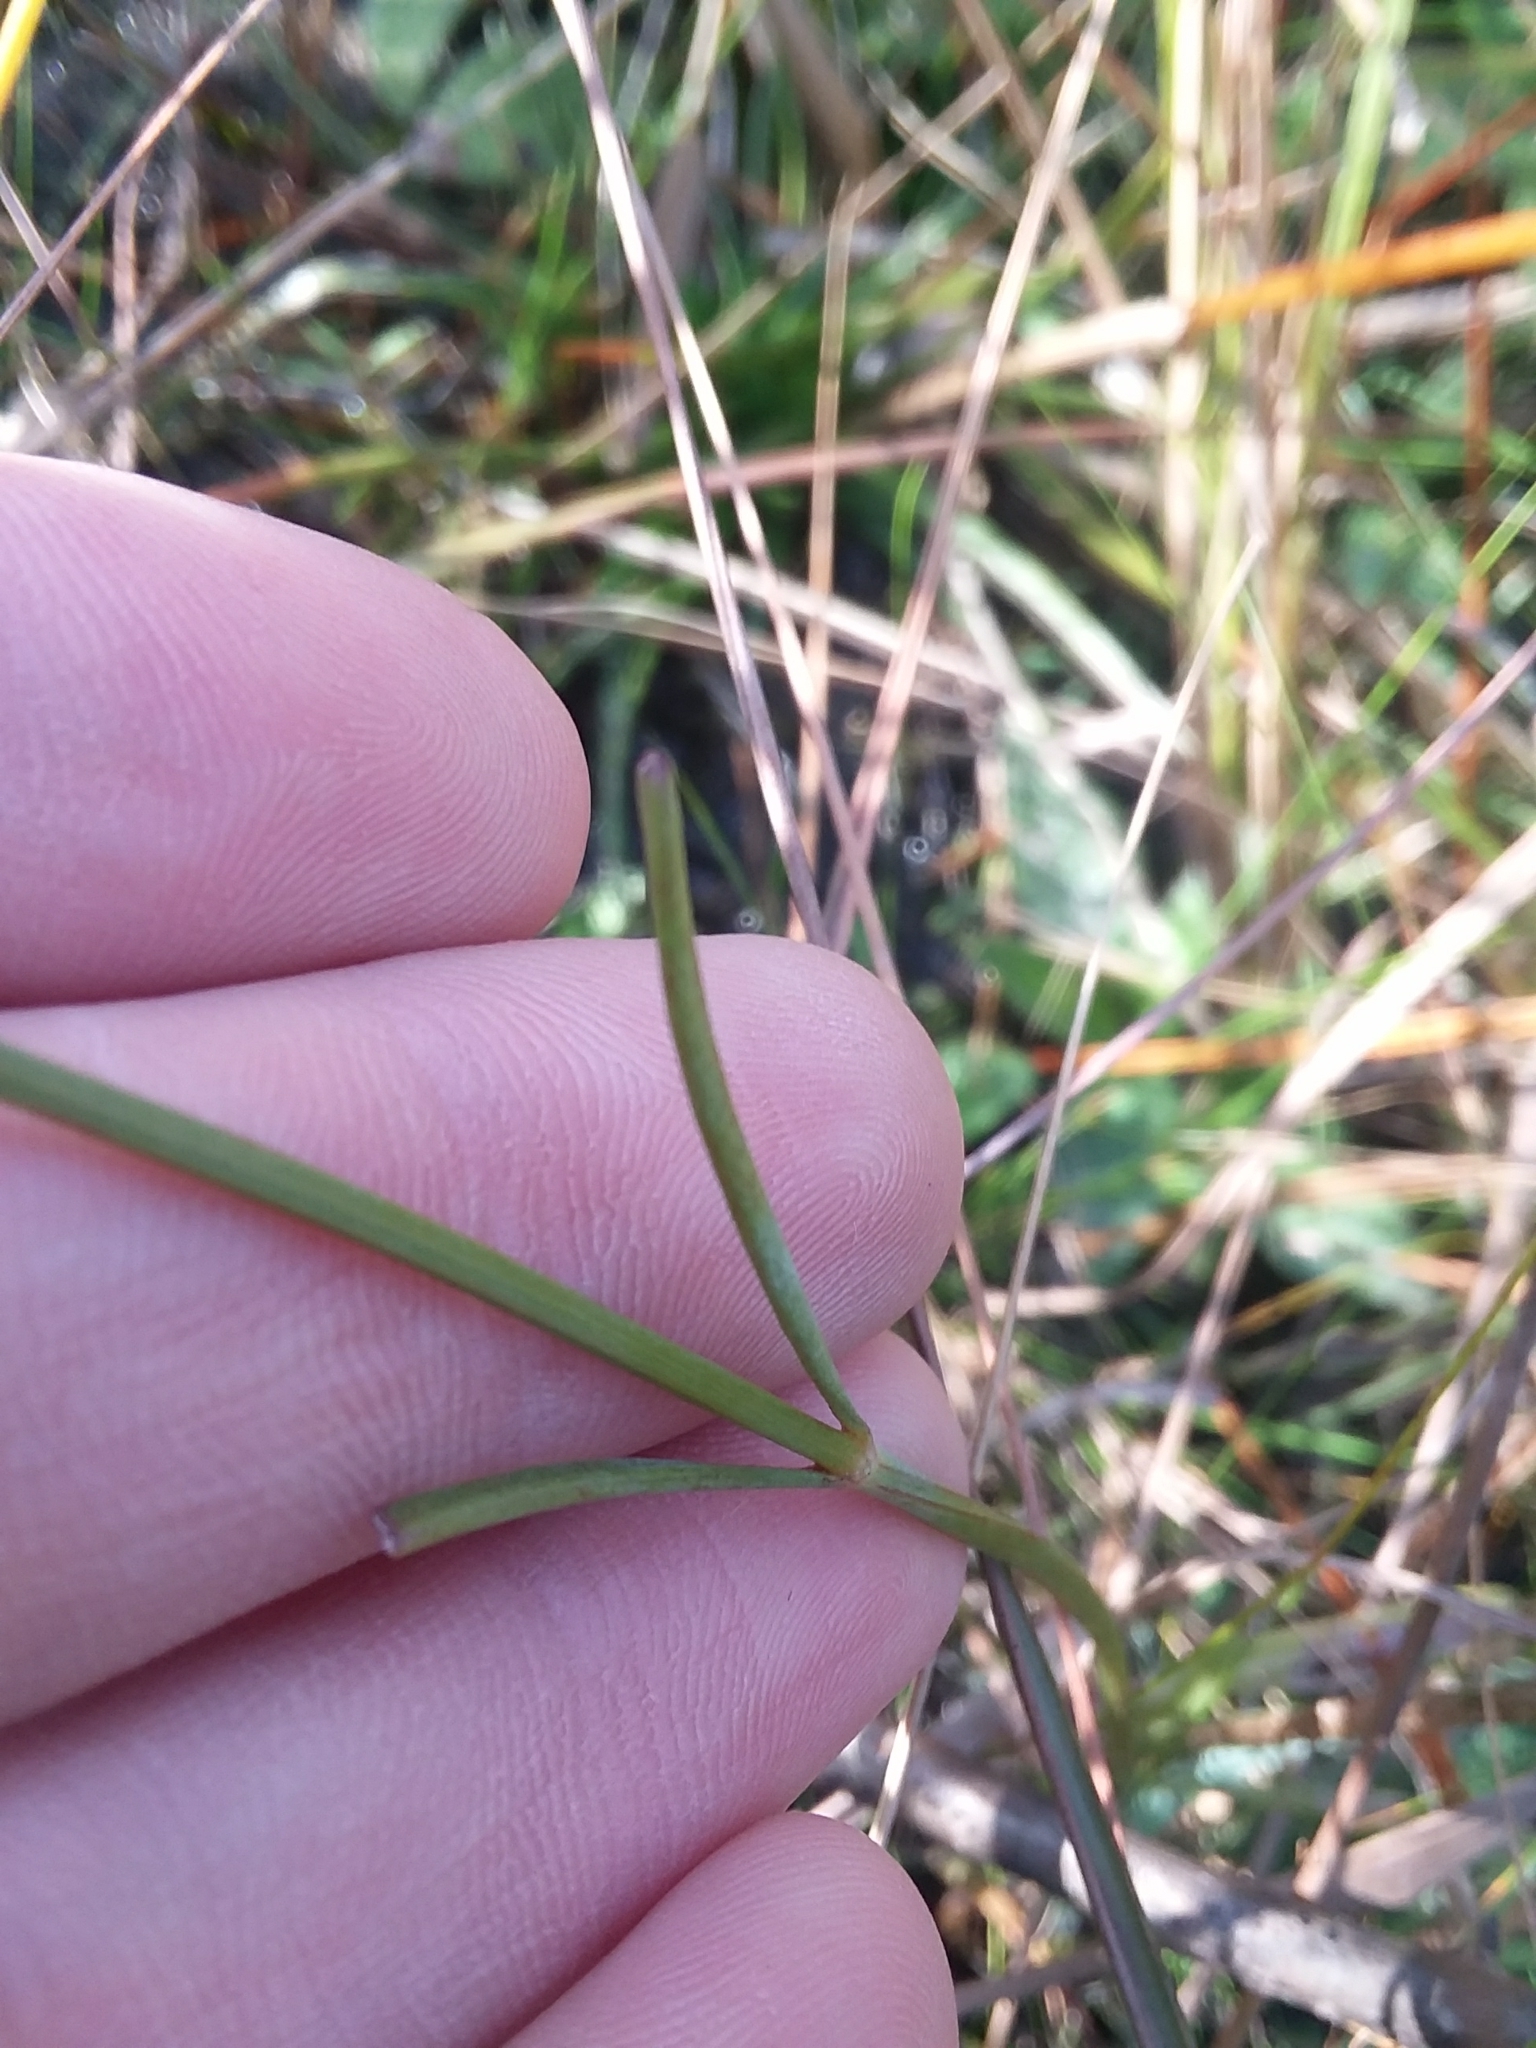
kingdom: Plantae
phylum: Tracheophyta
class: Magnoliopsida
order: Asterales
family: Asteraceae
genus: Coreopsis
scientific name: Coreopsis gladiata
